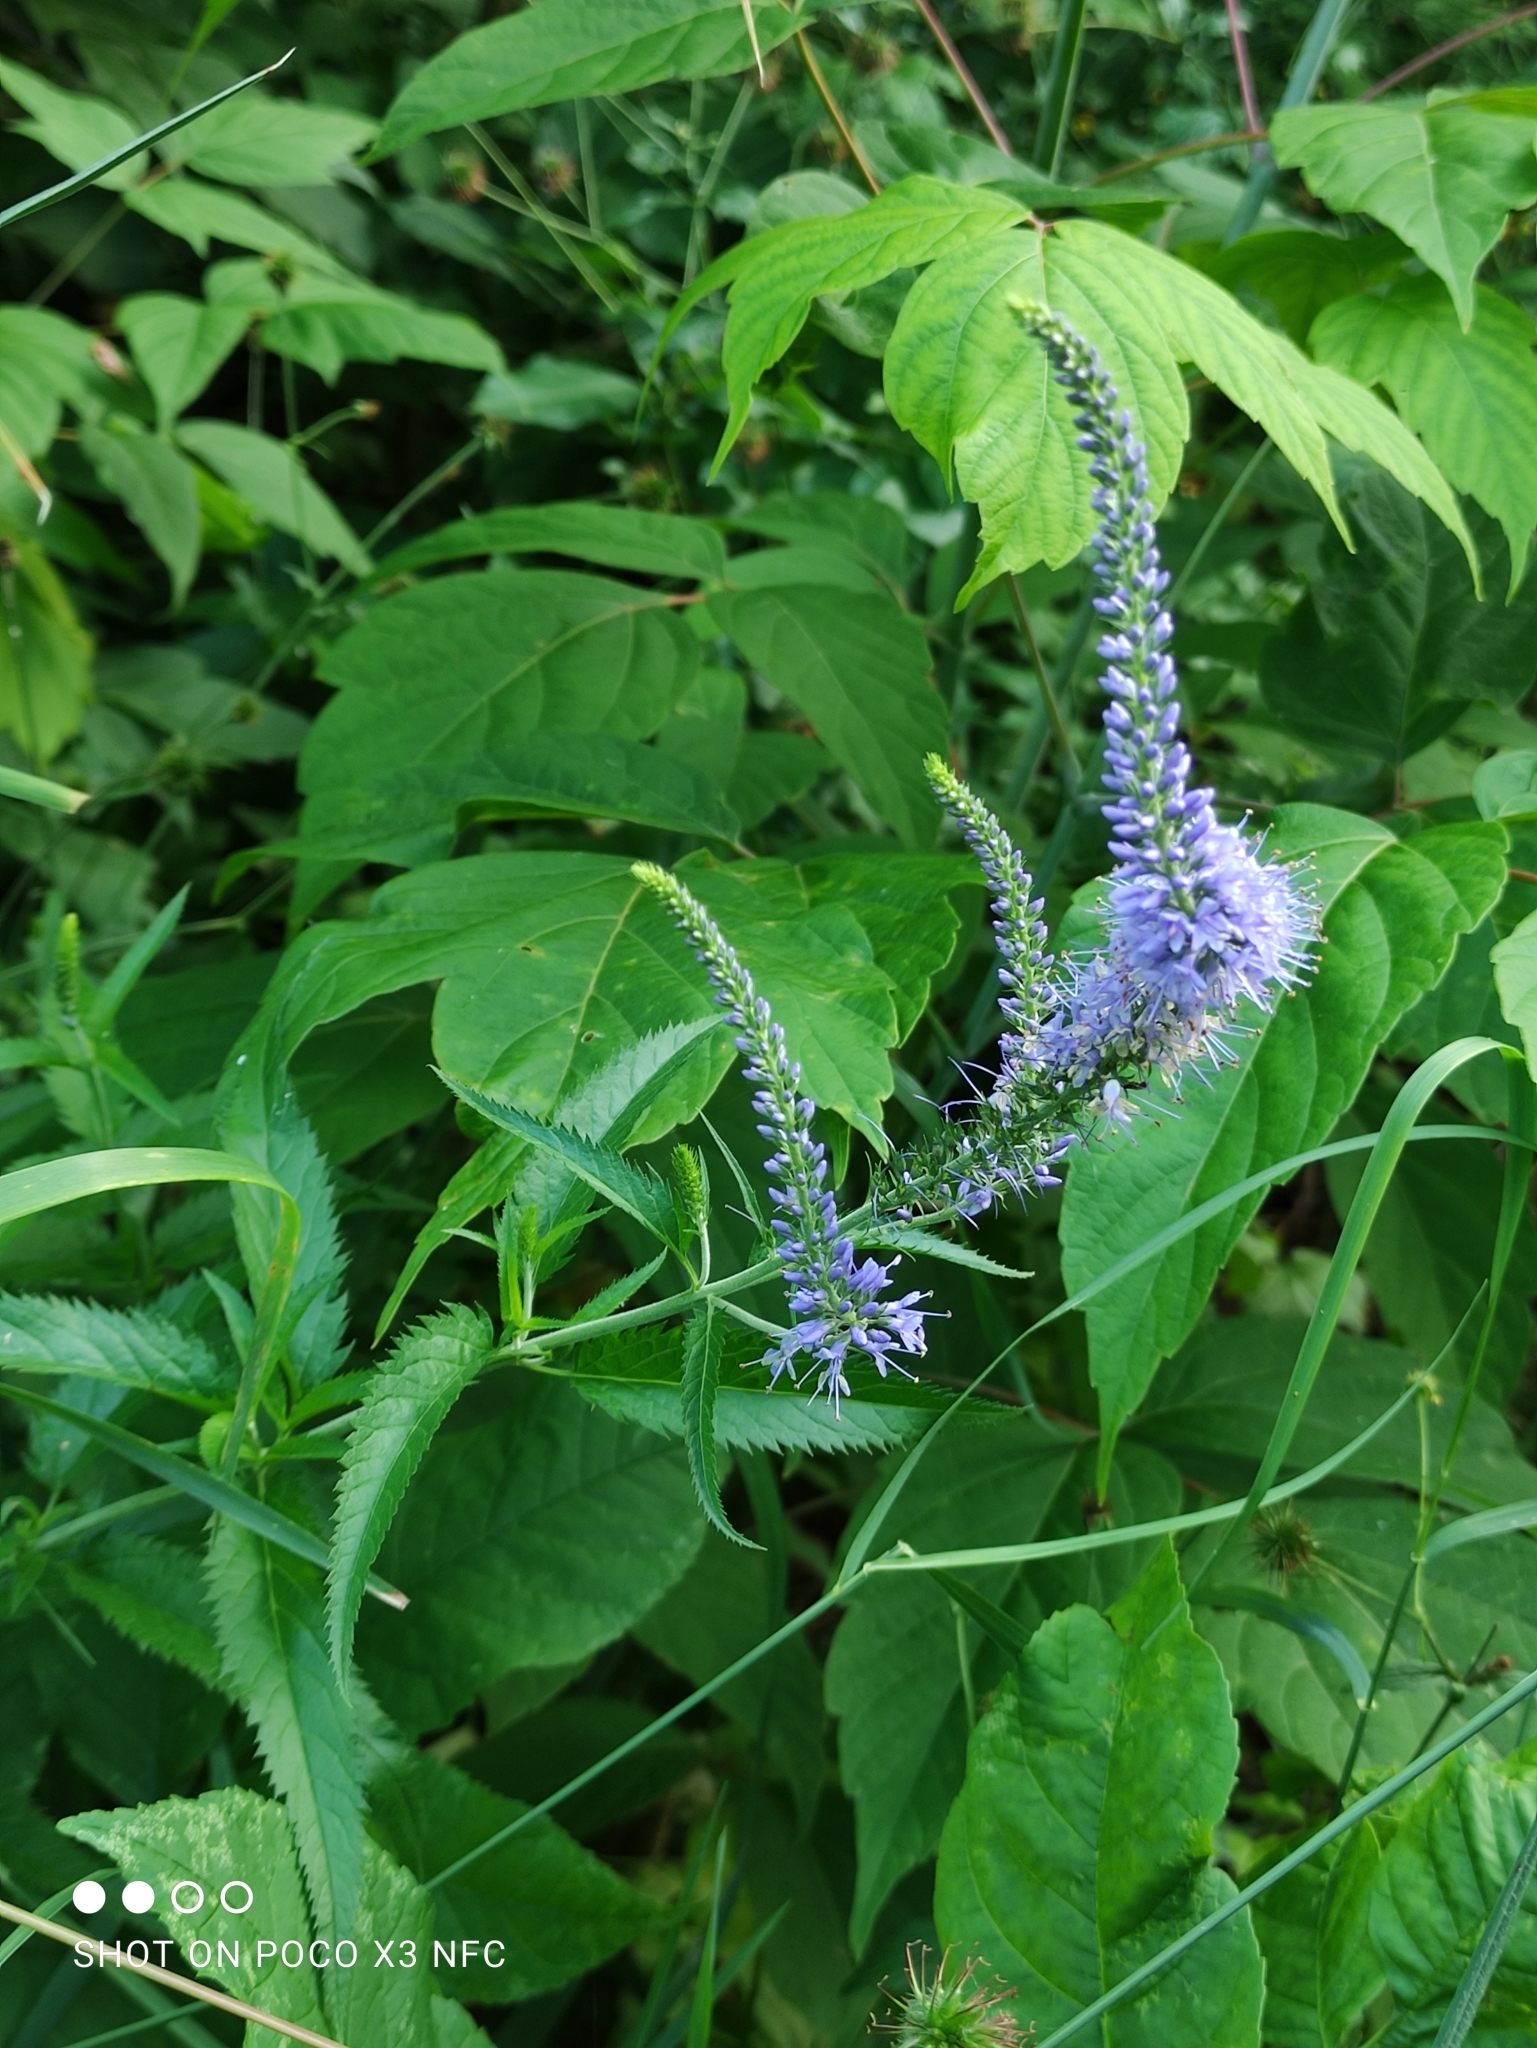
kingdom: Plantae
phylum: Tracheophyta
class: Magnoliopsida
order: Lamiales
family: Plantaginaceae
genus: Veronica
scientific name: Veronica longifolia
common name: Garden speedwell
